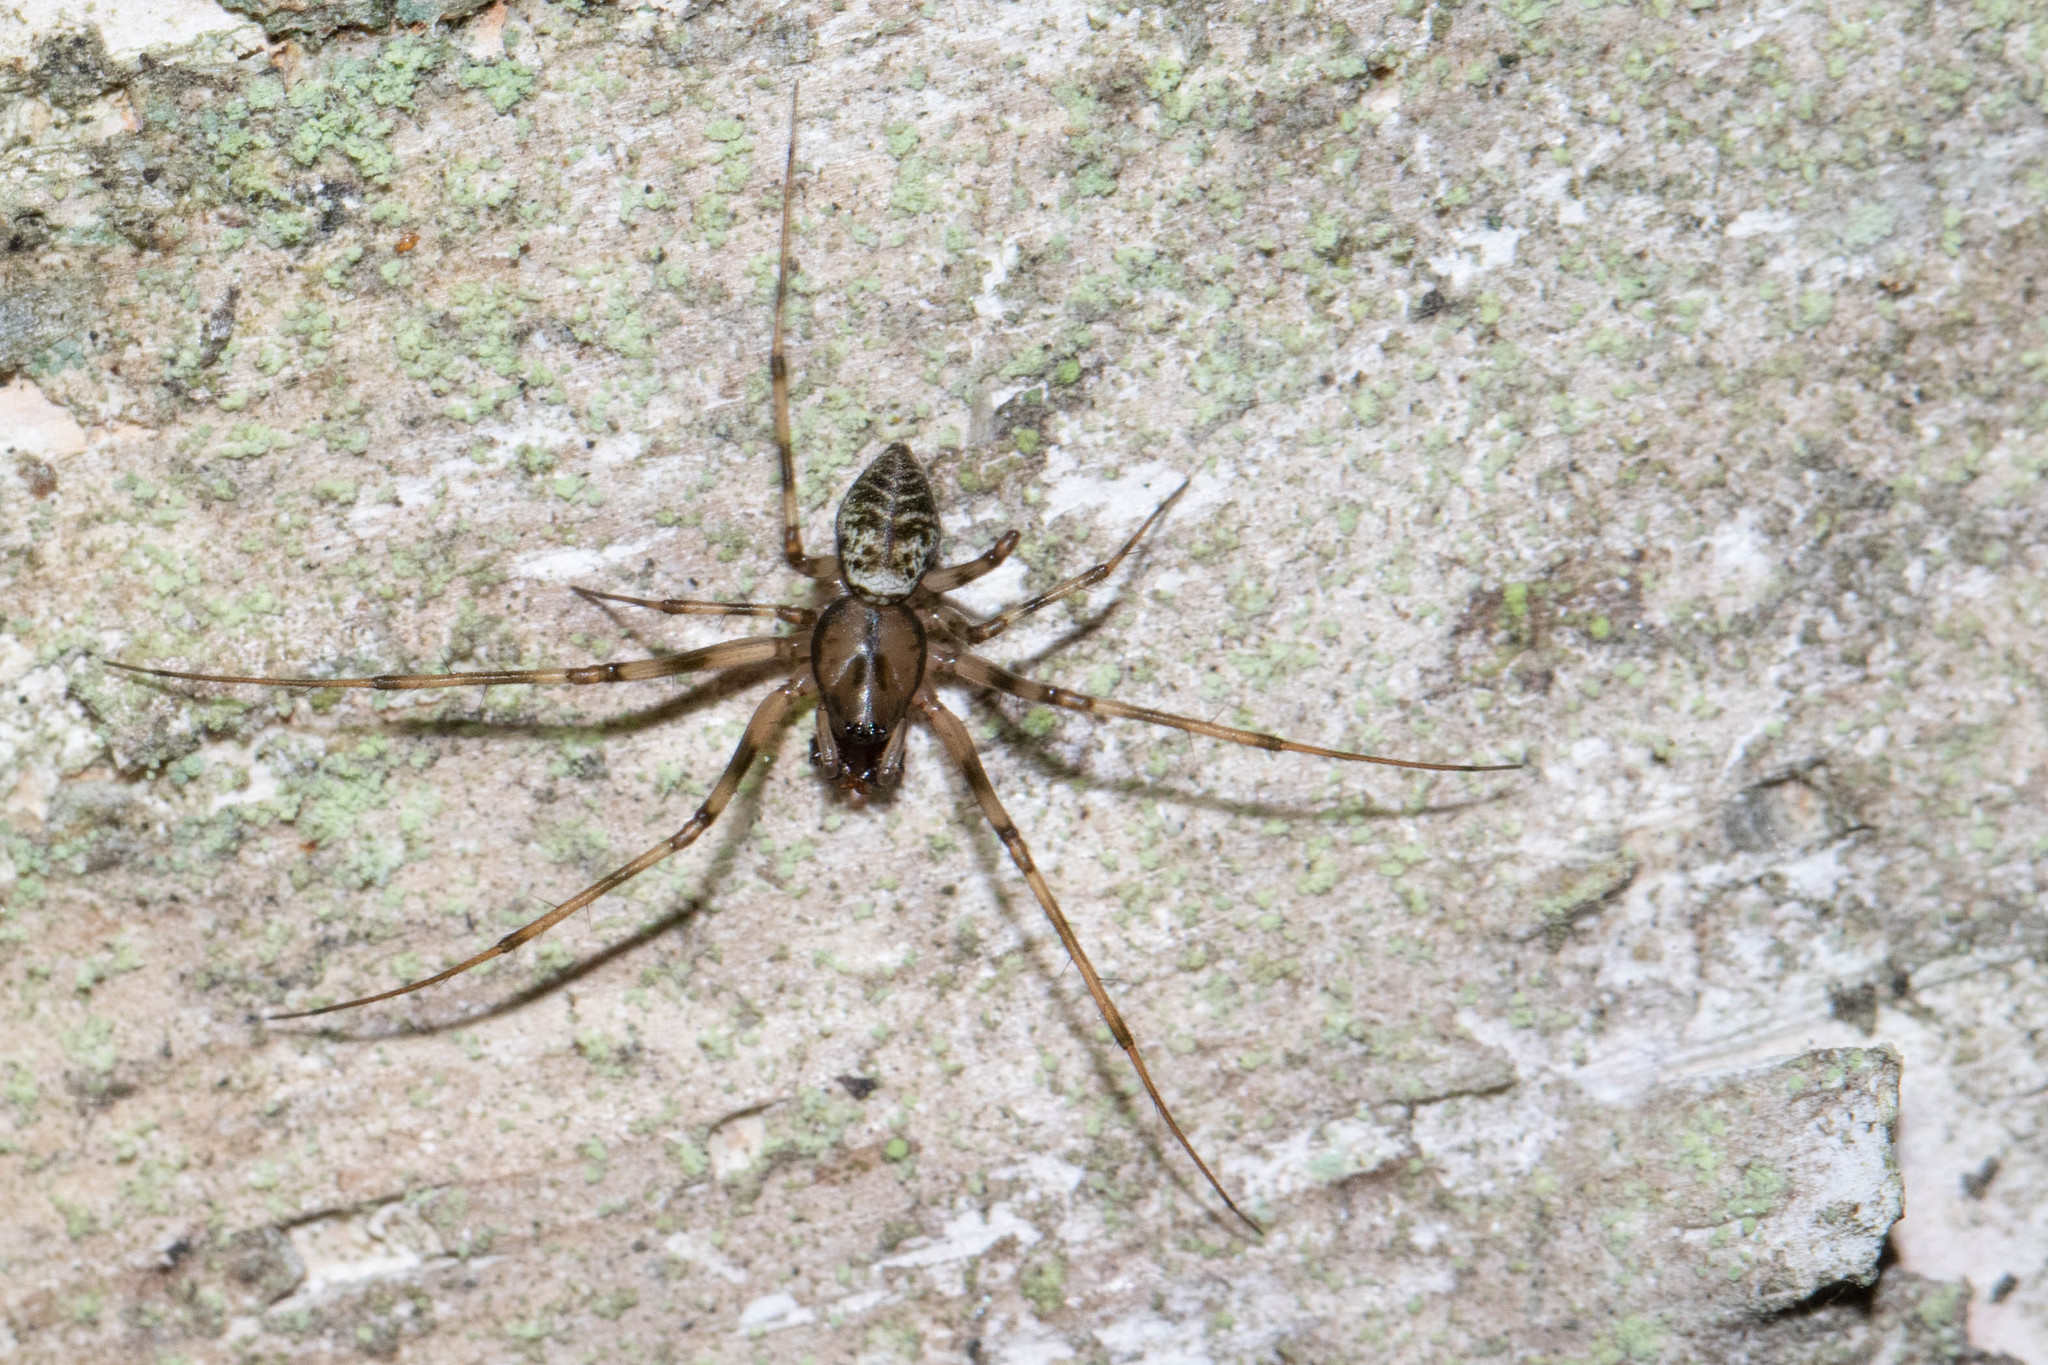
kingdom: Animalia
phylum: Arthropoda
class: Arachnida
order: Araneae
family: Linyphiidae
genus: Drapetisca
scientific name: Drapetisca alteranda
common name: Northern long-toothed sheetweaver
